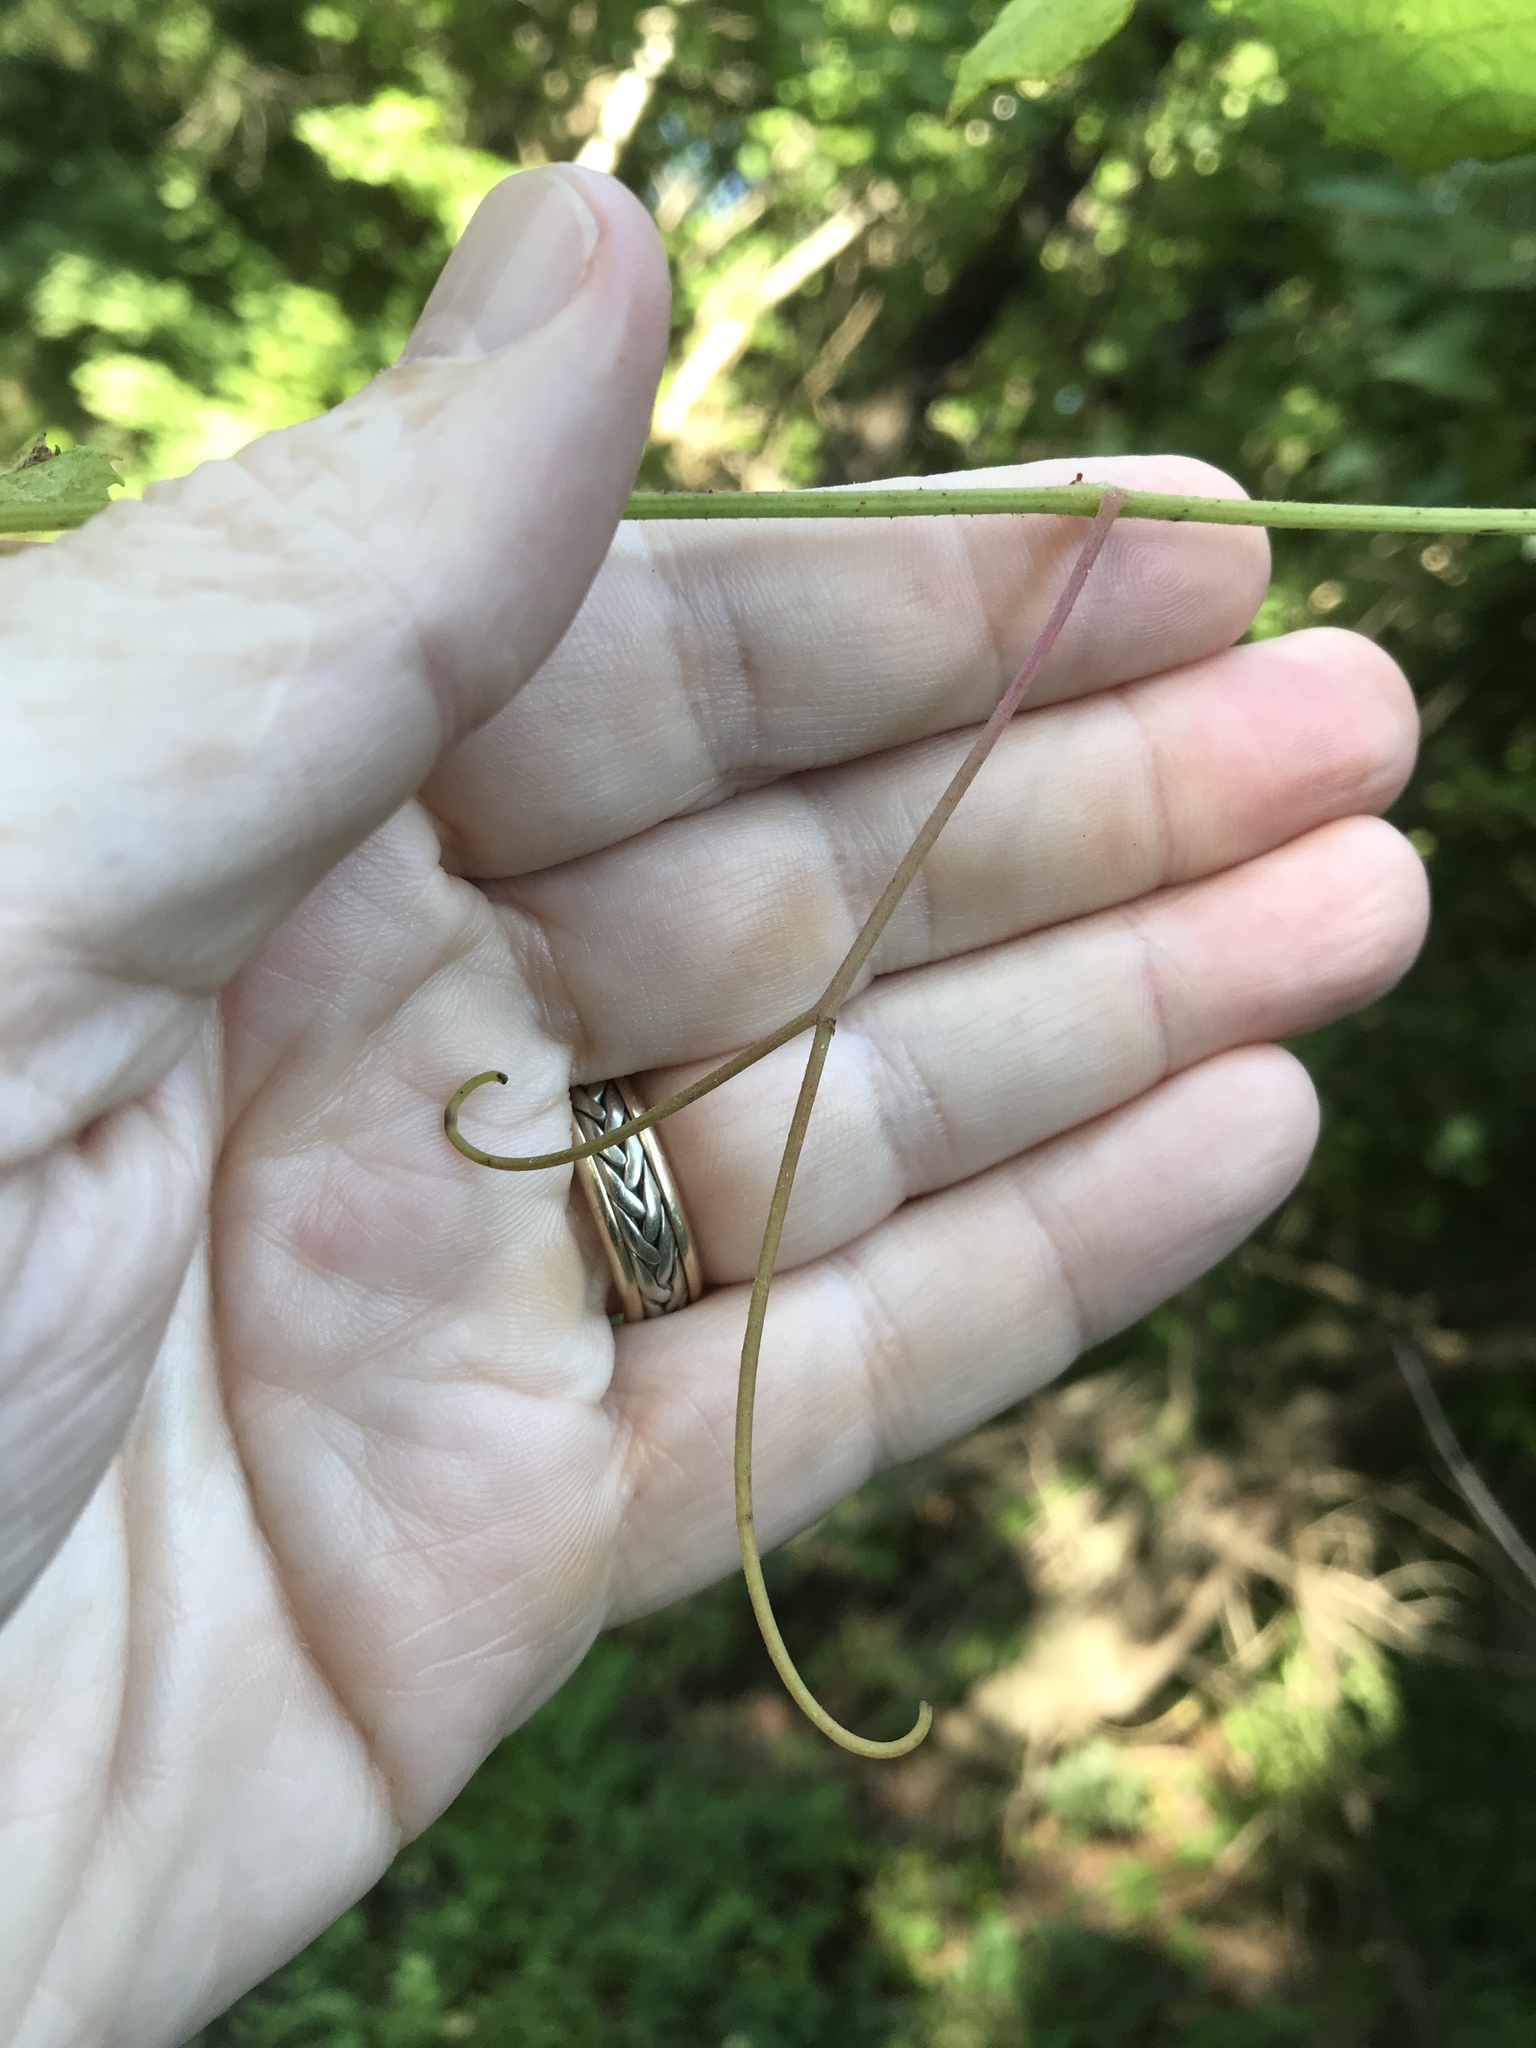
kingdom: Plantae
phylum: Tracheophyta
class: Magnoliopsida
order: Vitales
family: Vitaceae
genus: Vitis
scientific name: Vitis aestivalis
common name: Pigeon grape
